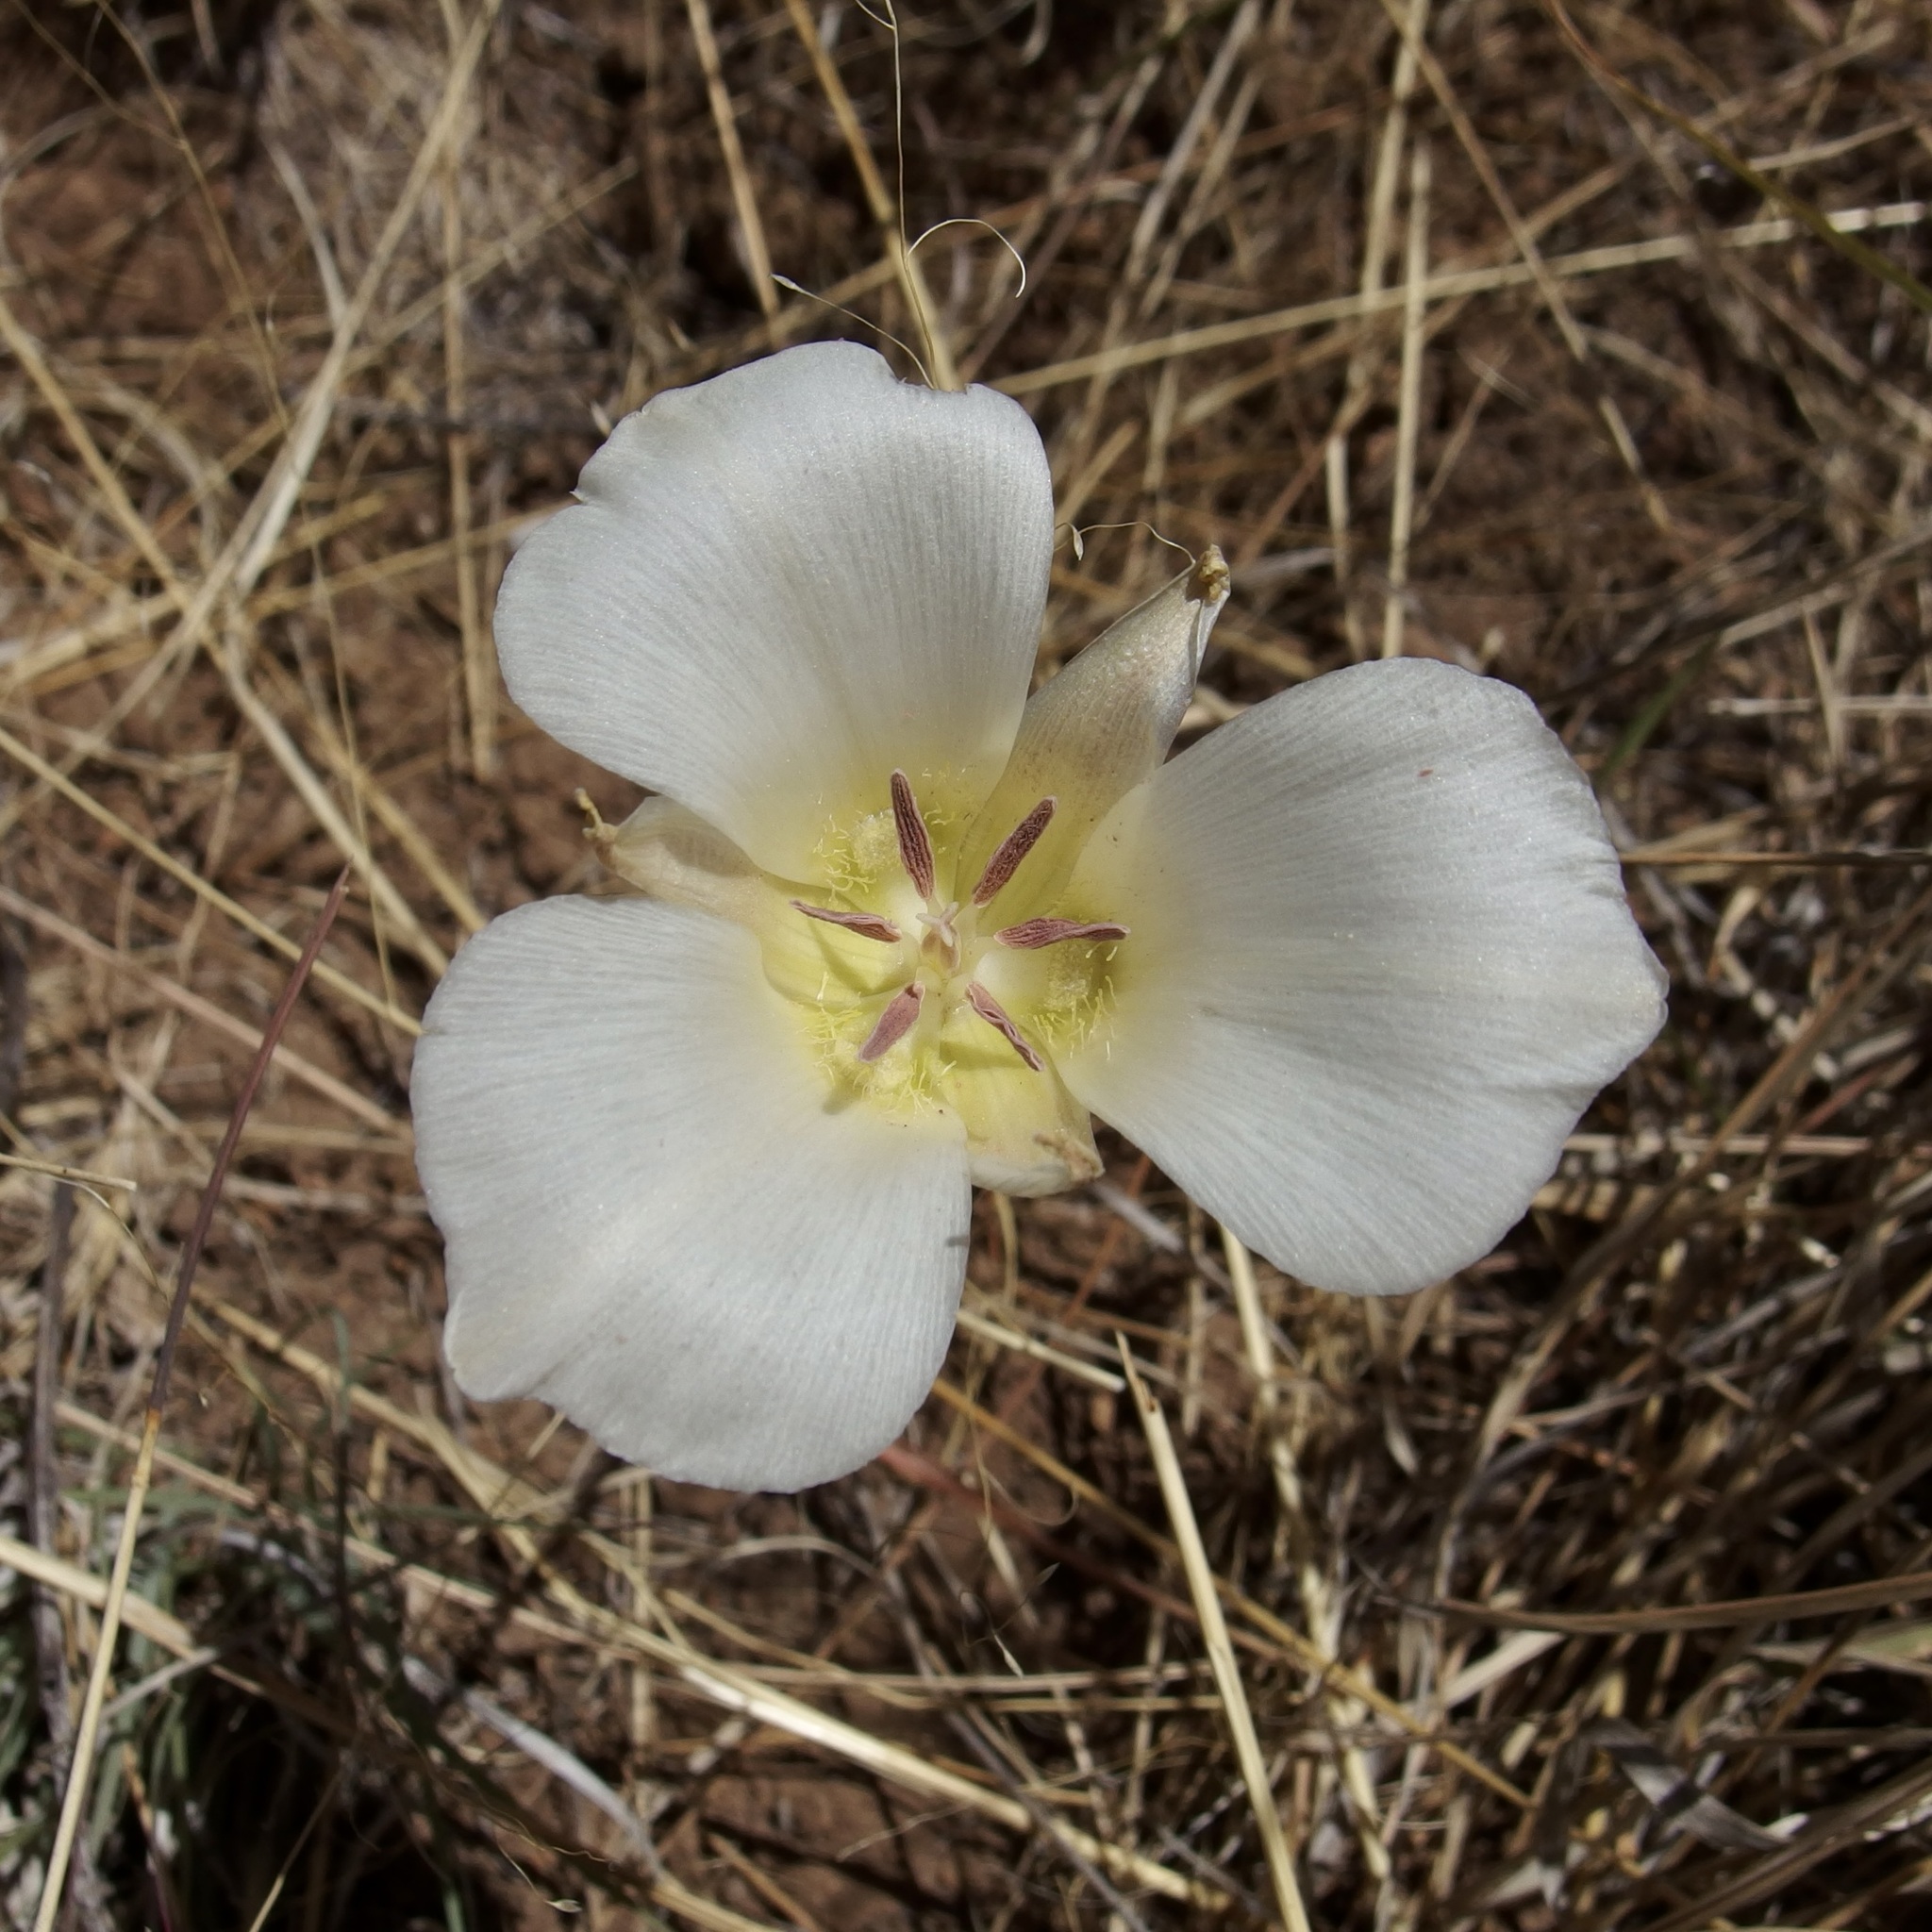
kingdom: Plantae
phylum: Tracheophyta
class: Liliopsida
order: Liliales
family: Liliaceae
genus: Calochortus
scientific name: Calochortus ambiguus
